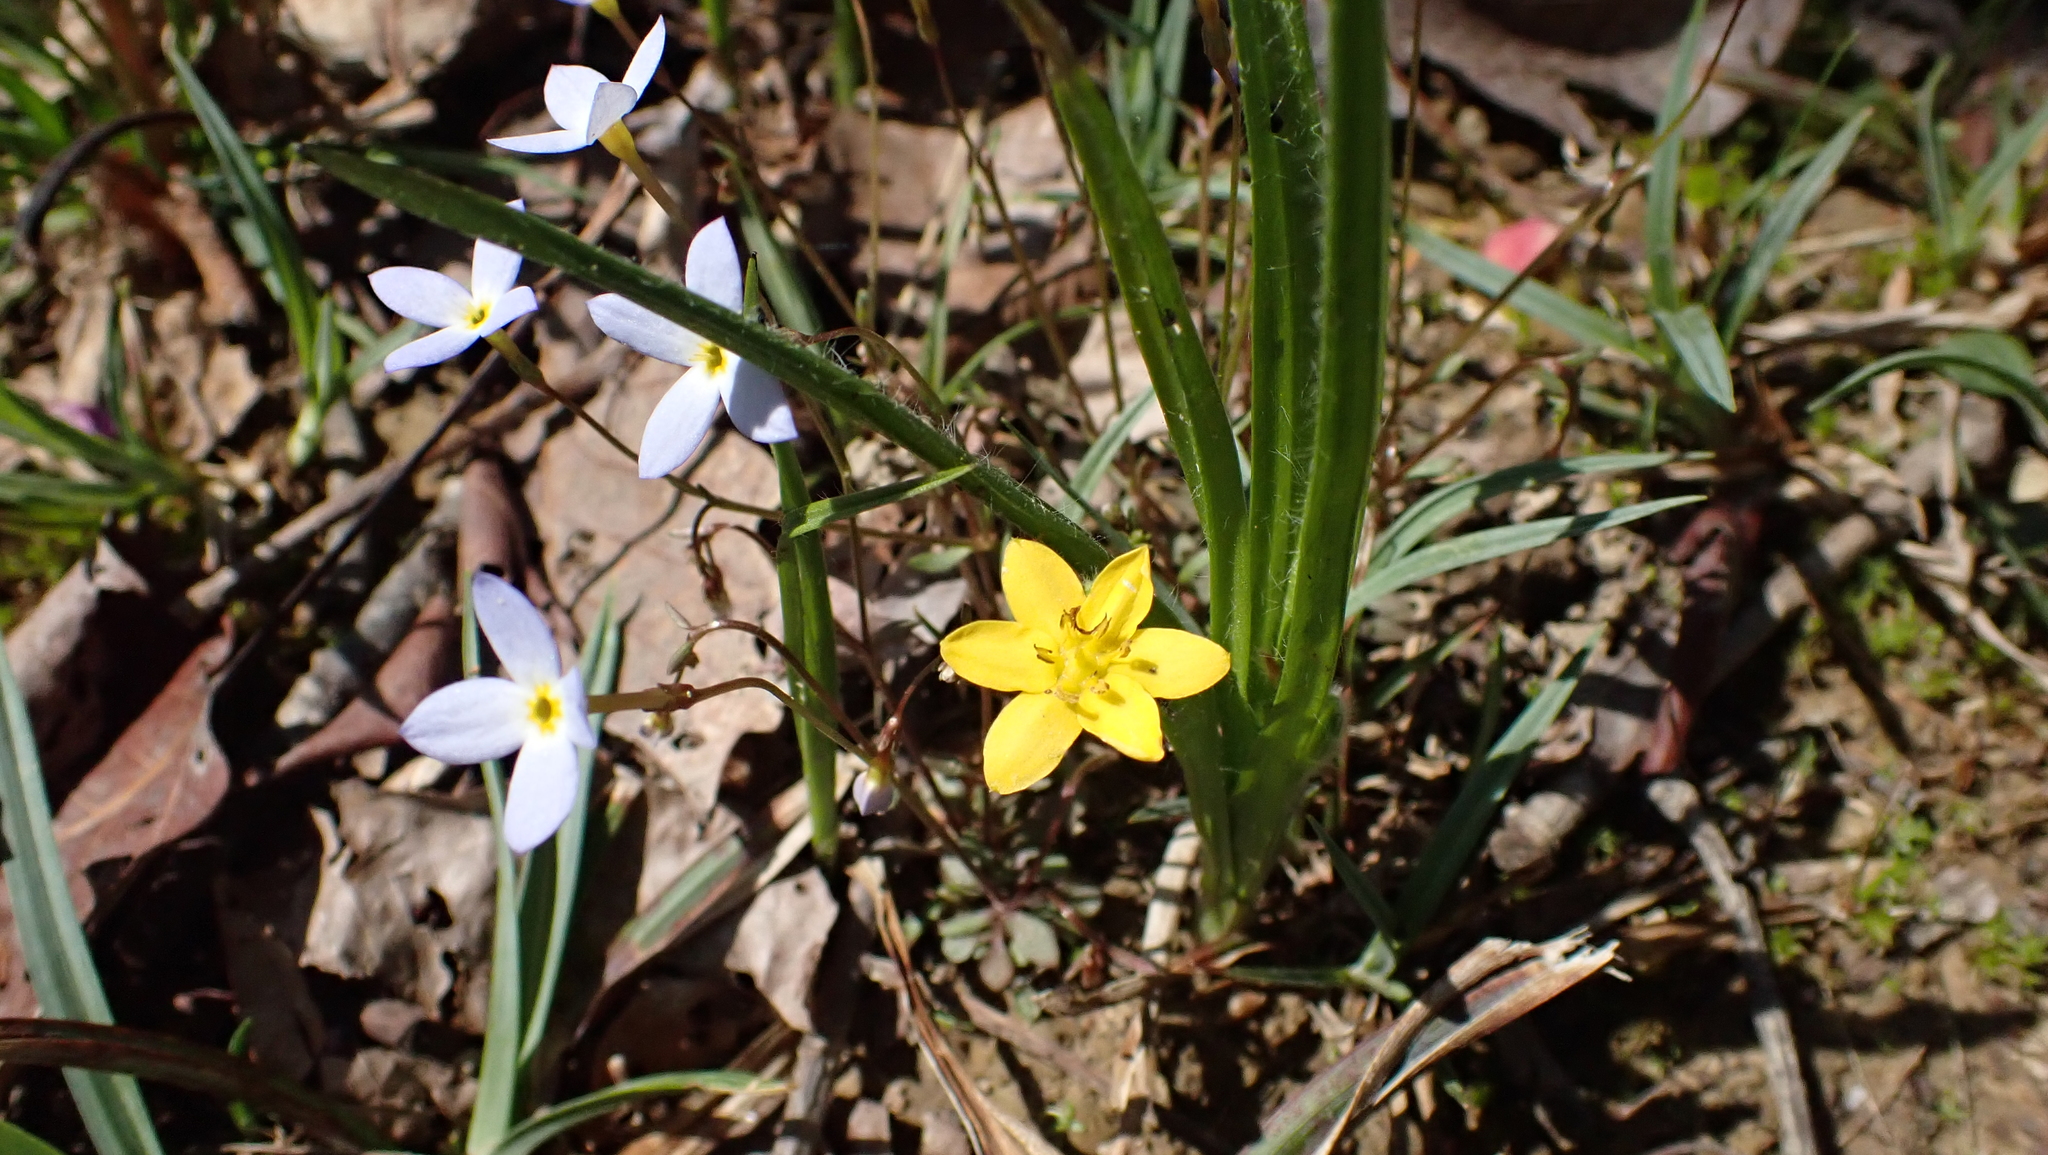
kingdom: Plantae
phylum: Tracheophyta
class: Liliopsida
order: Asparagales
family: Hypoxidaceae
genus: Hypoxis
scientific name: Hypoxis hirsuta
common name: Common goldstar
